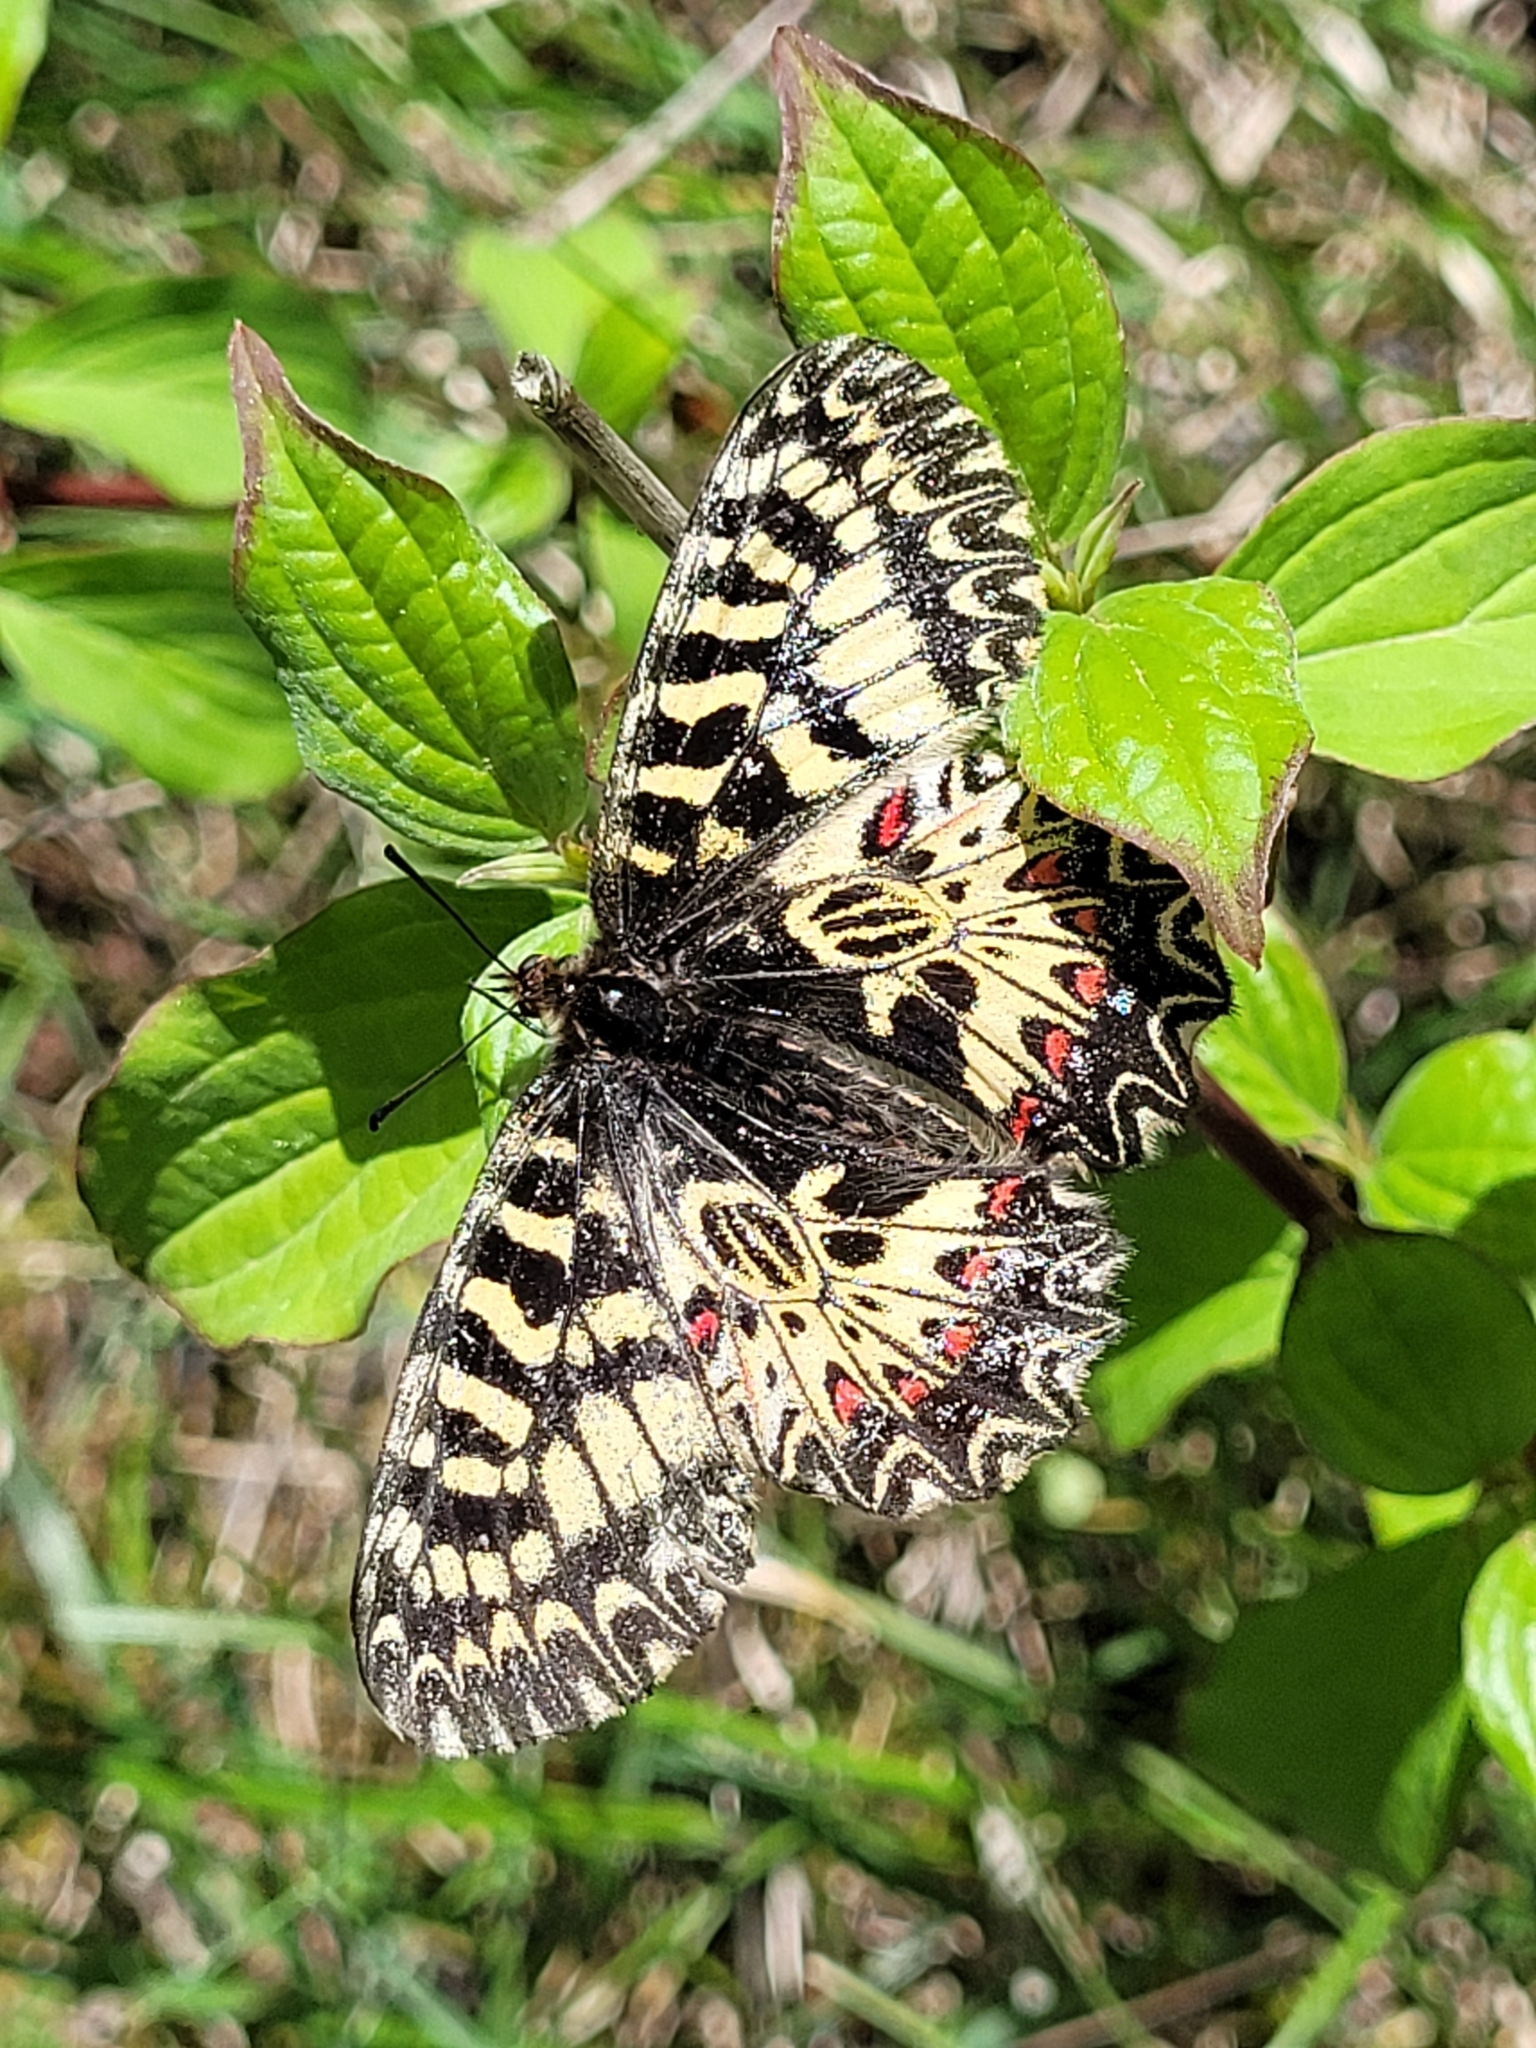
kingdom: Animalia
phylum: Arthropoda
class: Insecta
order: Lepidoptera
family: Papilionidae
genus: Zerynthia
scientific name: Zerynthia polyxena
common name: Southern festoon
